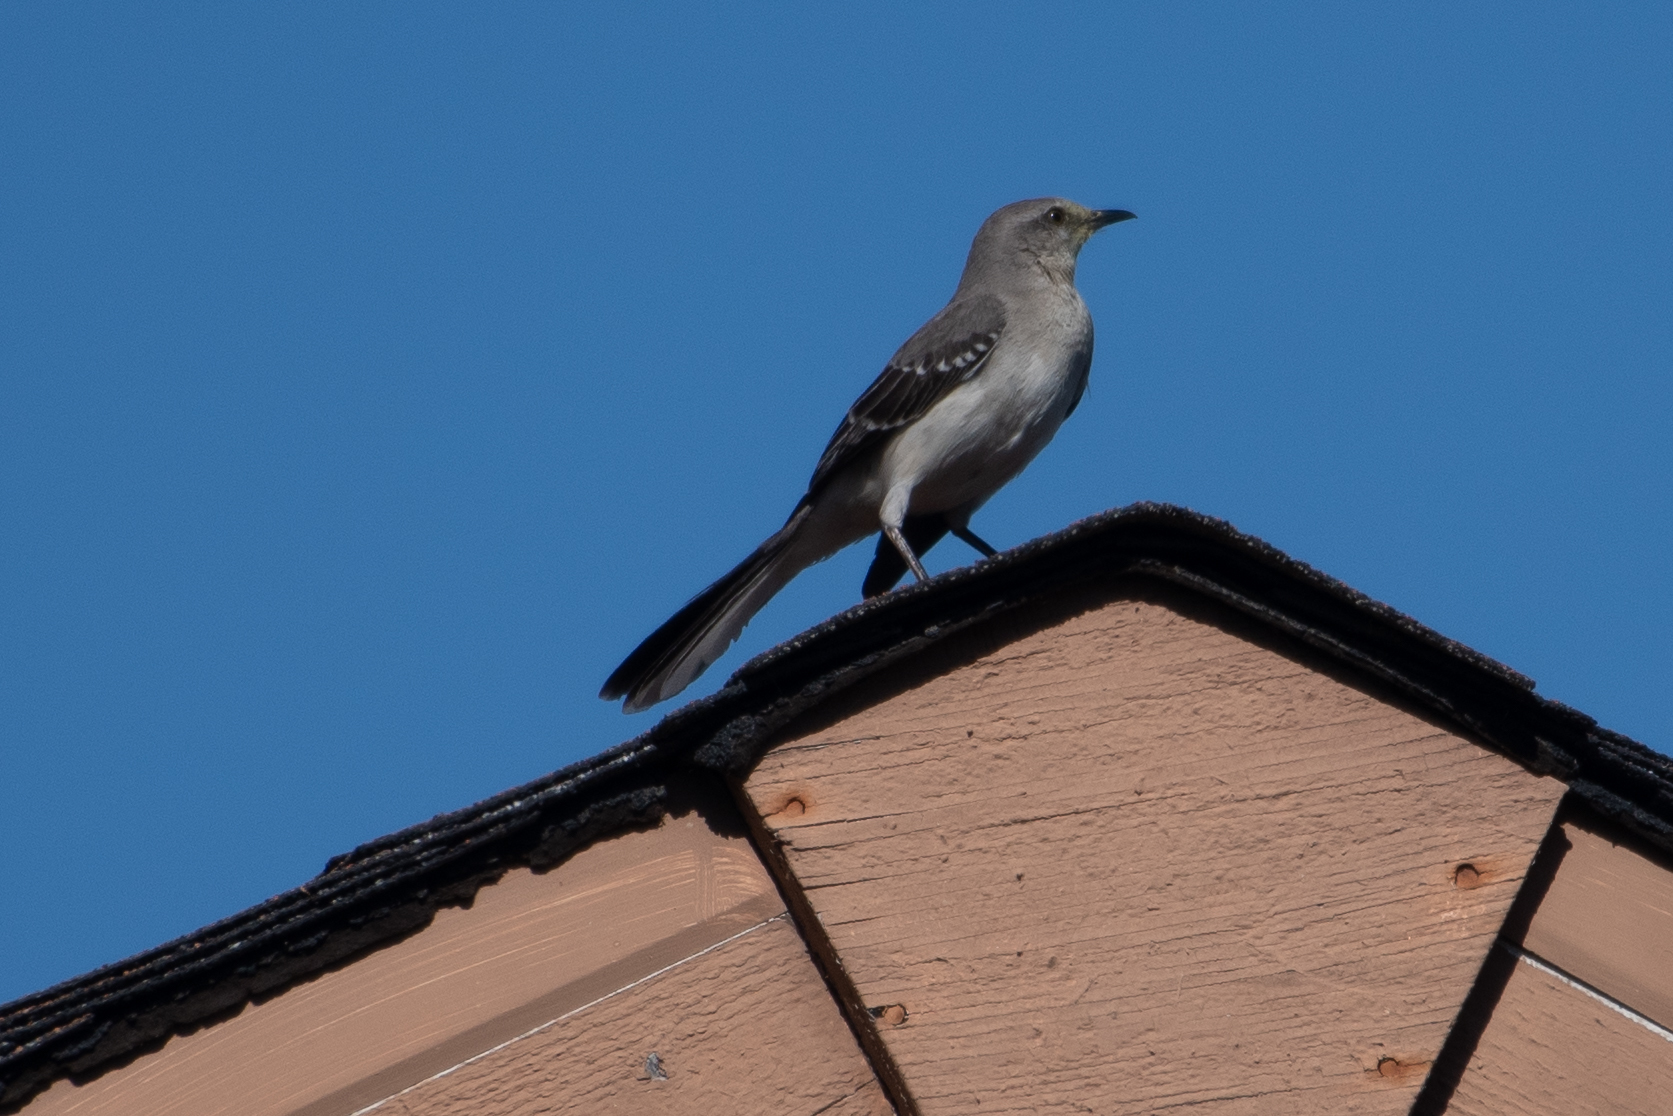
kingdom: Animalia
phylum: Chordata
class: Aves
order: Passeriformes
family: Mimidae
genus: Mimus
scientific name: Mimus polyglottos
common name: Northern mockingbird
